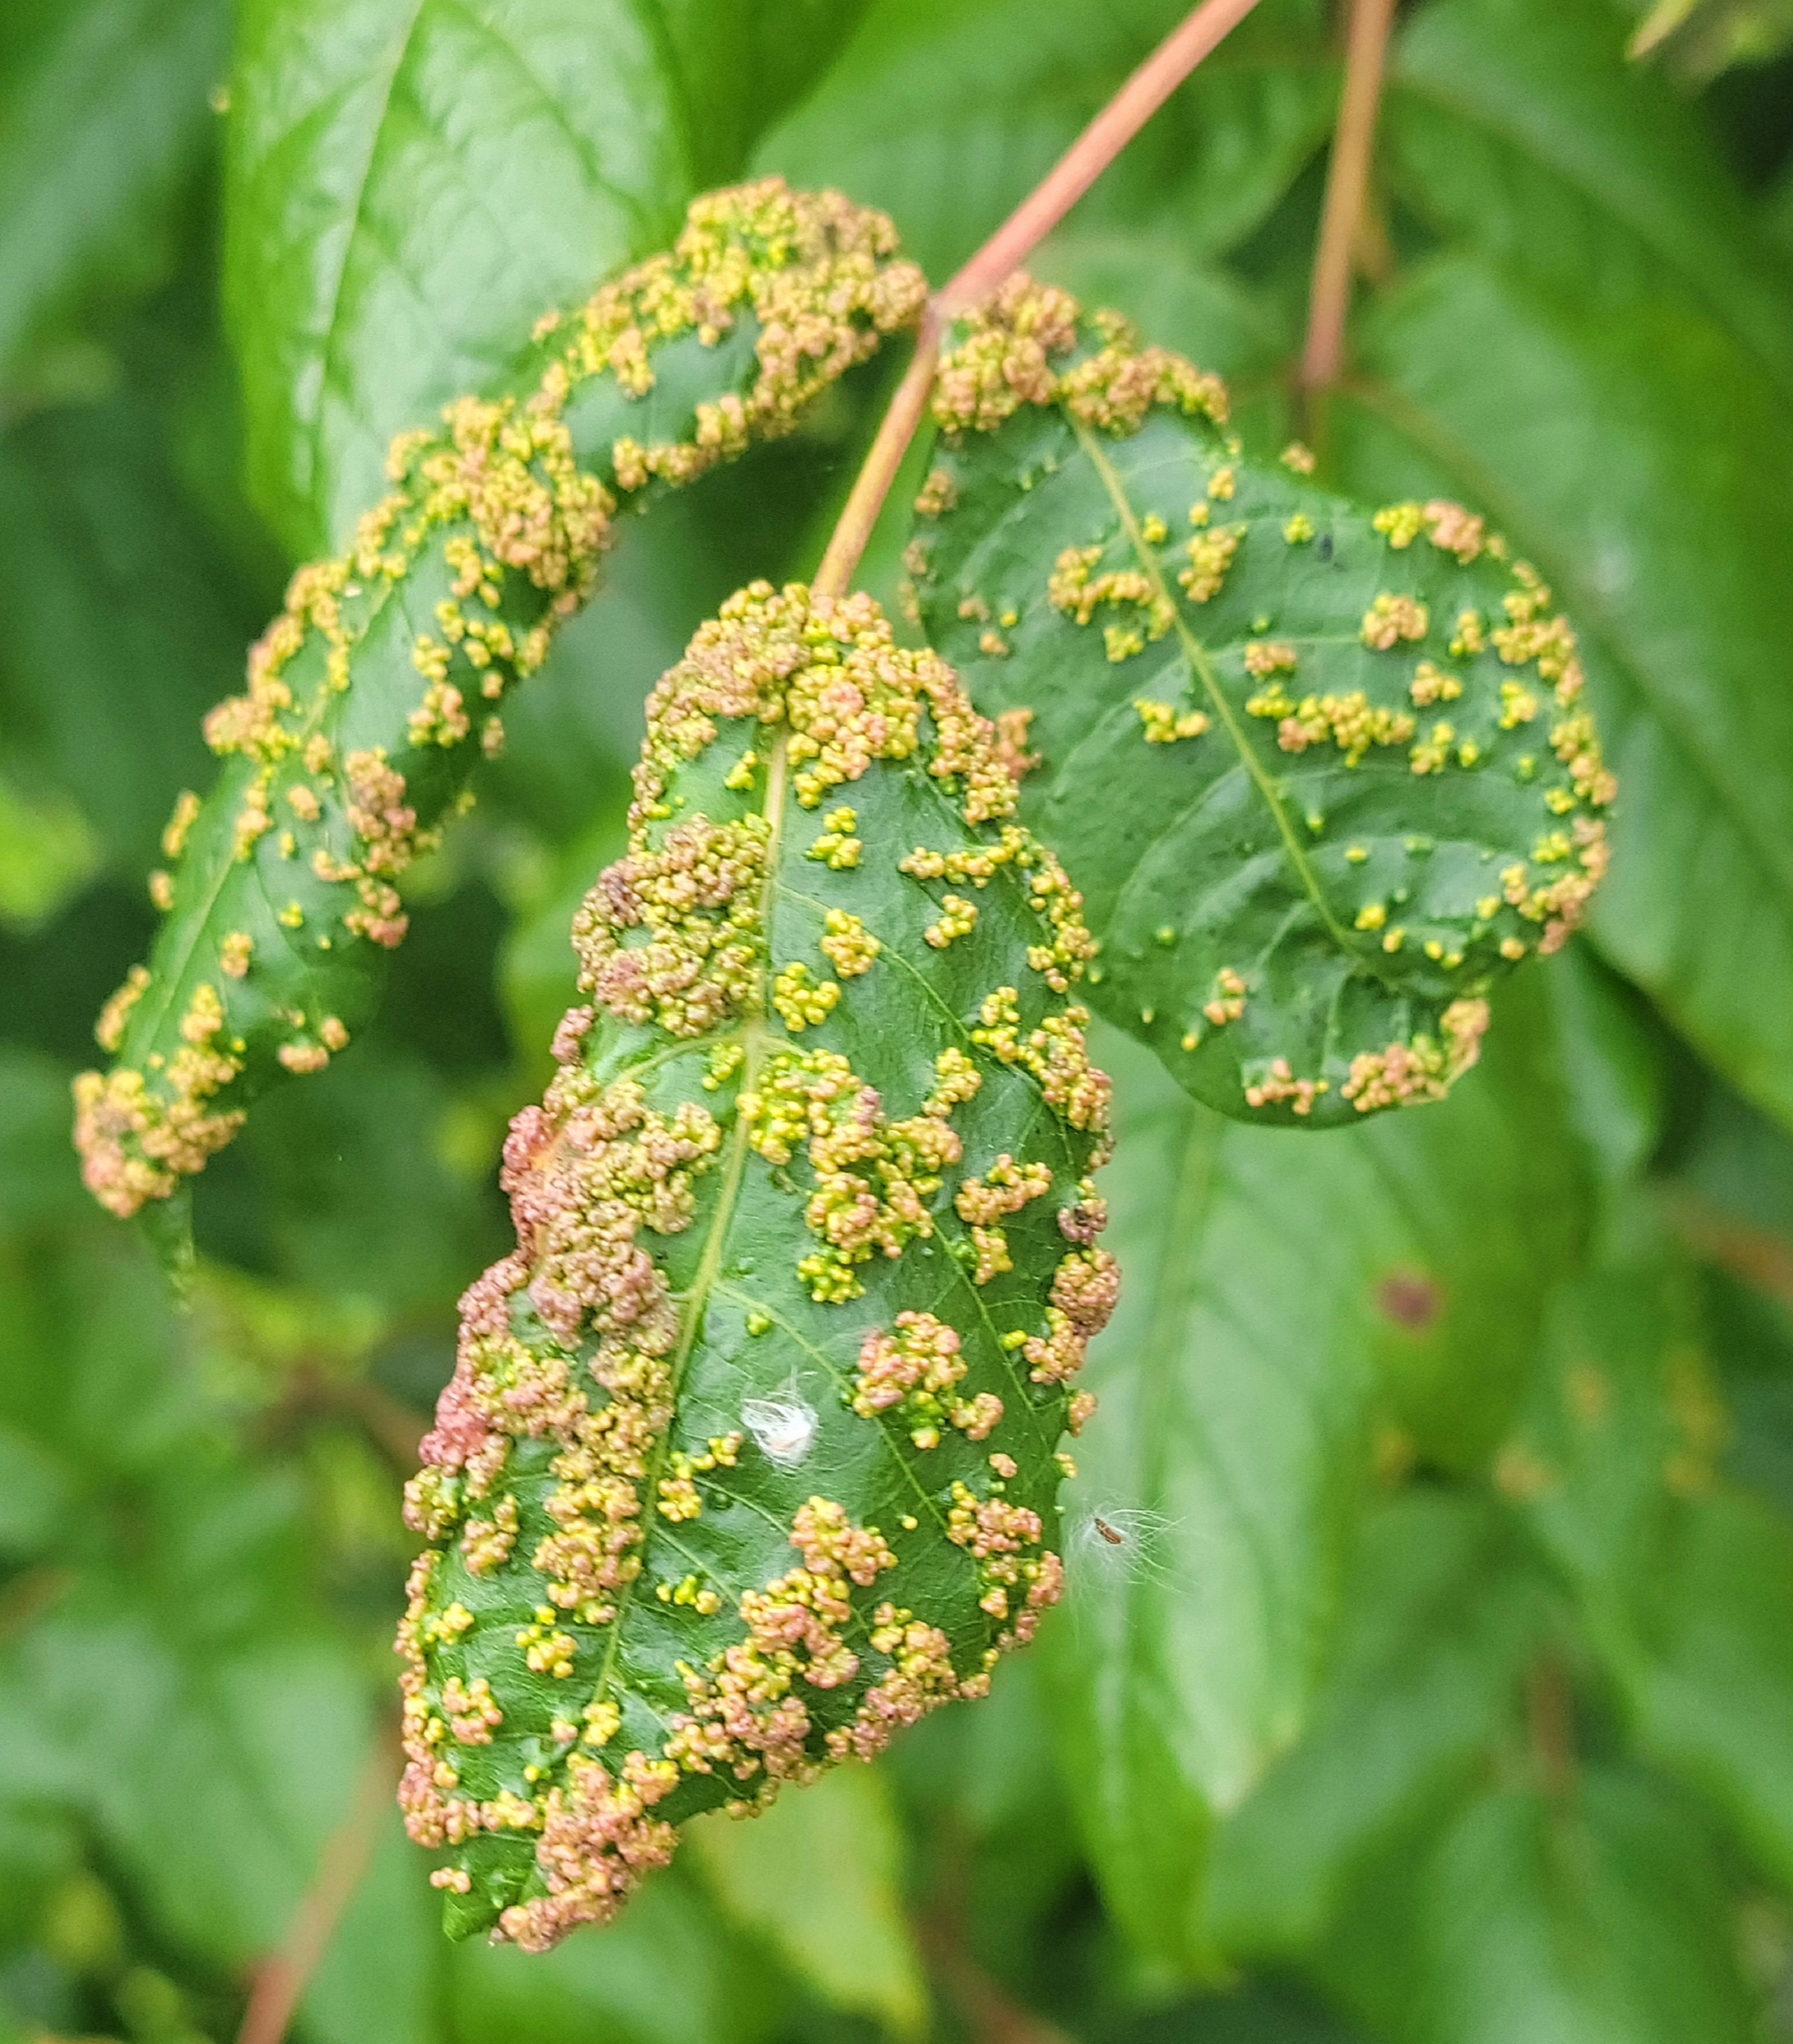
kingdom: Animalia
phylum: Arthropoda
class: Arachnida
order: Trombidiformes
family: Eriophyidae
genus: Aculops
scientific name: Aculops
